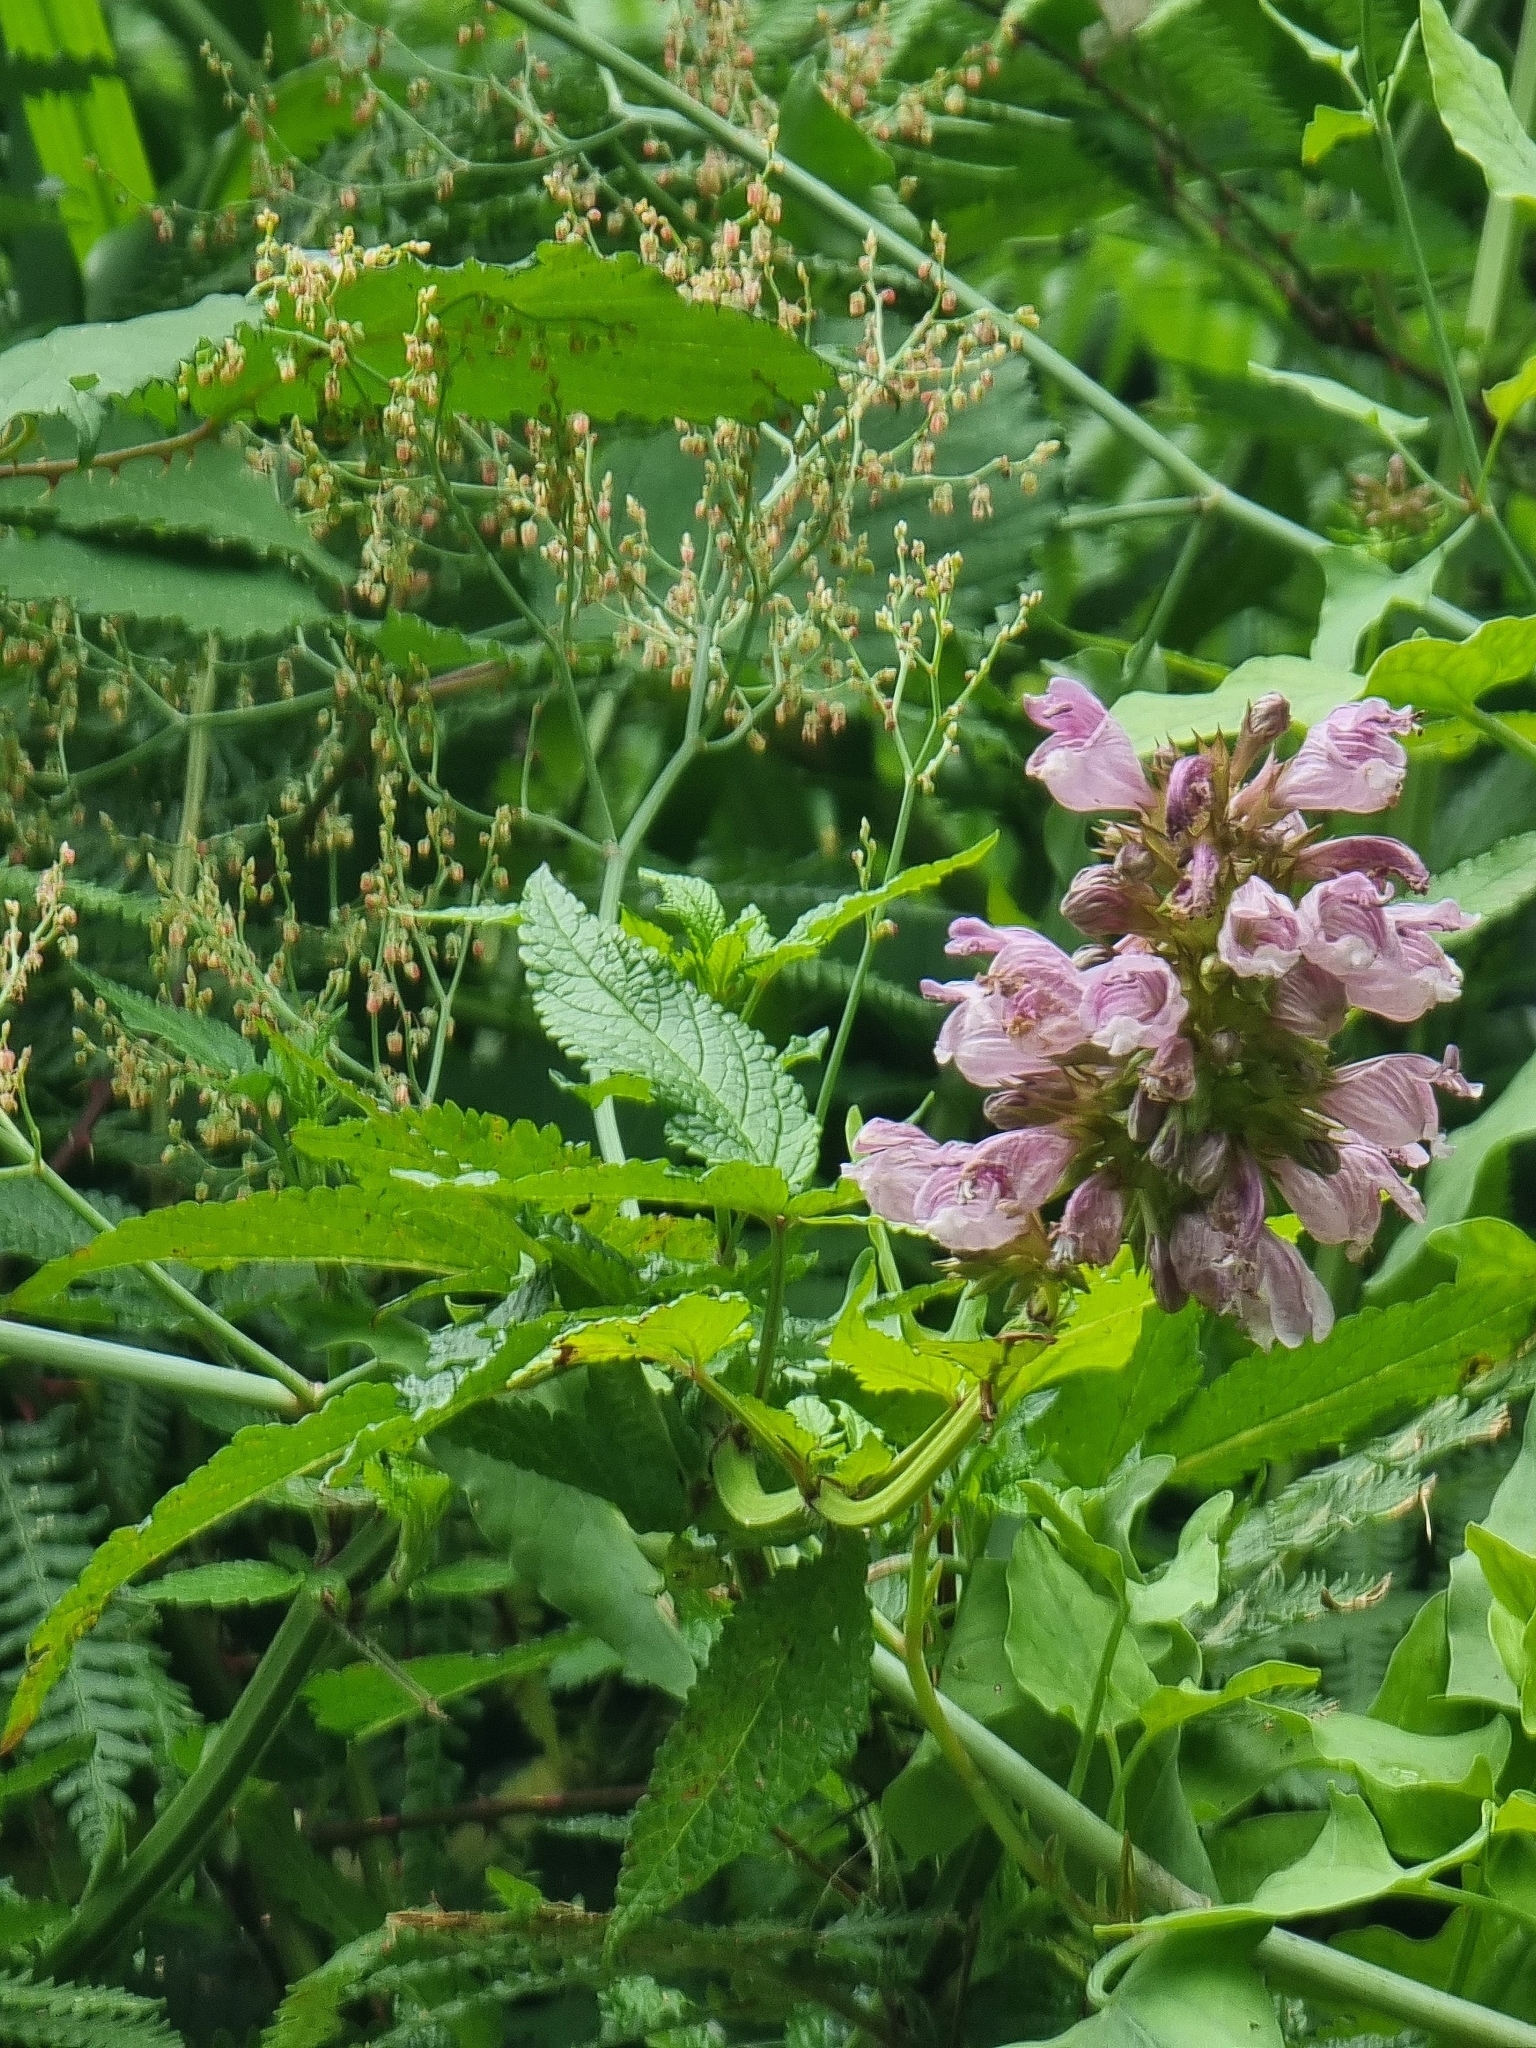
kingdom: Plantae
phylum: Tracheophyta
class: Magnoliopsida
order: Lamiales
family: Lamiaceae
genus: Cedronella
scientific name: Cedronella canariensis
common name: Canary islands balm
